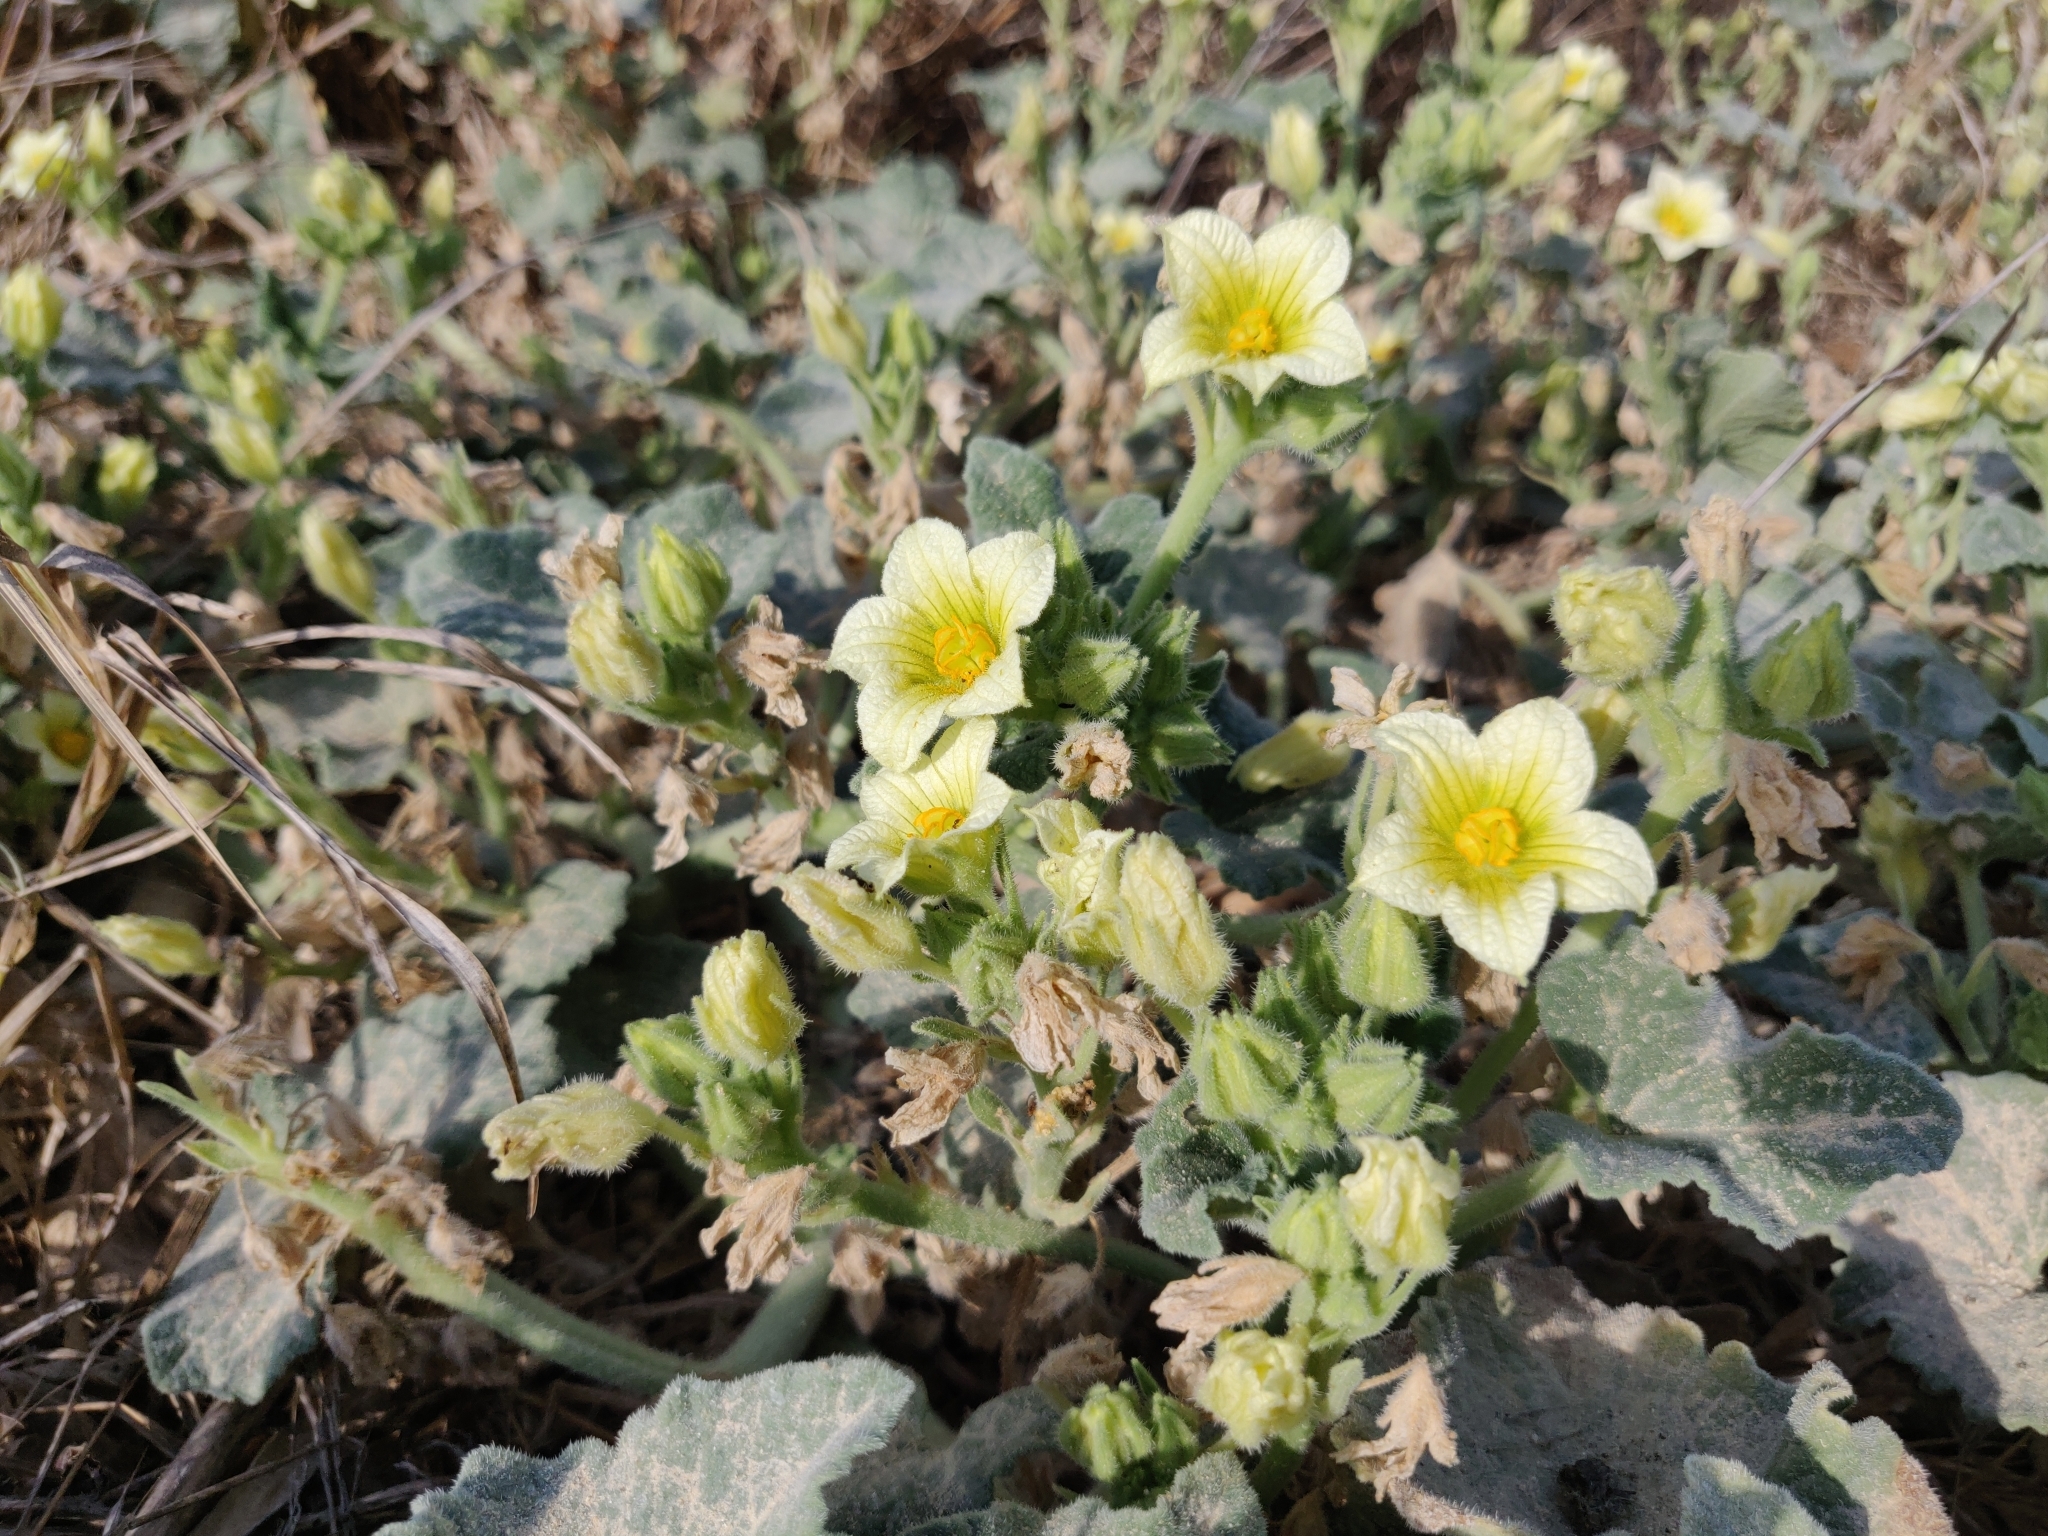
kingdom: Plantae
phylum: Tracheophyta
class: Magnoliopsida
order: Cucurbitales
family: Cucurbitaceae
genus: Ecballium
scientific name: Ecballium elaterium
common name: Squirting cucumber
